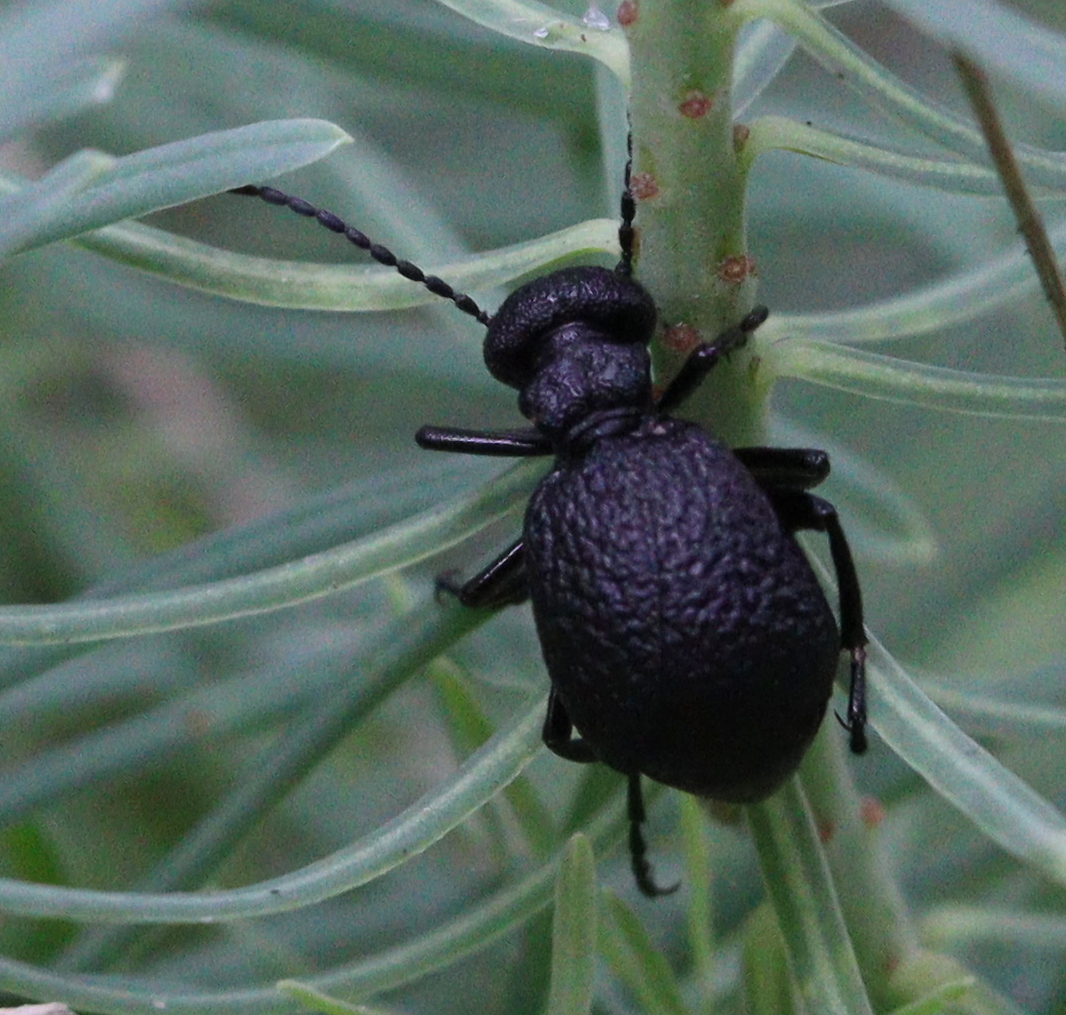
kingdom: Animalia
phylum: Arthropoda
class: Insecta
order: Coleoptera
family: Meloidae
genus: Meloe
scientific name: Meloe rugosus
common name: Rugged oil-beetle
